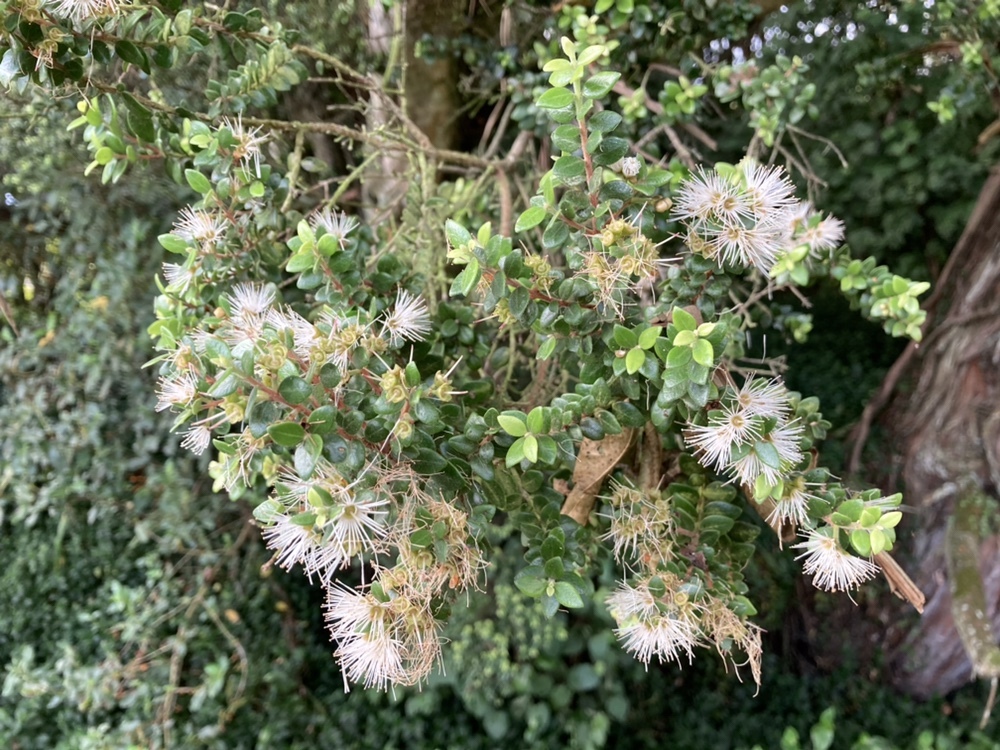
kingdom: Plantae
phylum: Tracheophyta
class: Magnoliopsida
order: Myrtales
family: Myrtaceae
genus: Metrosideros
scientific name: Metrosideros perforata
